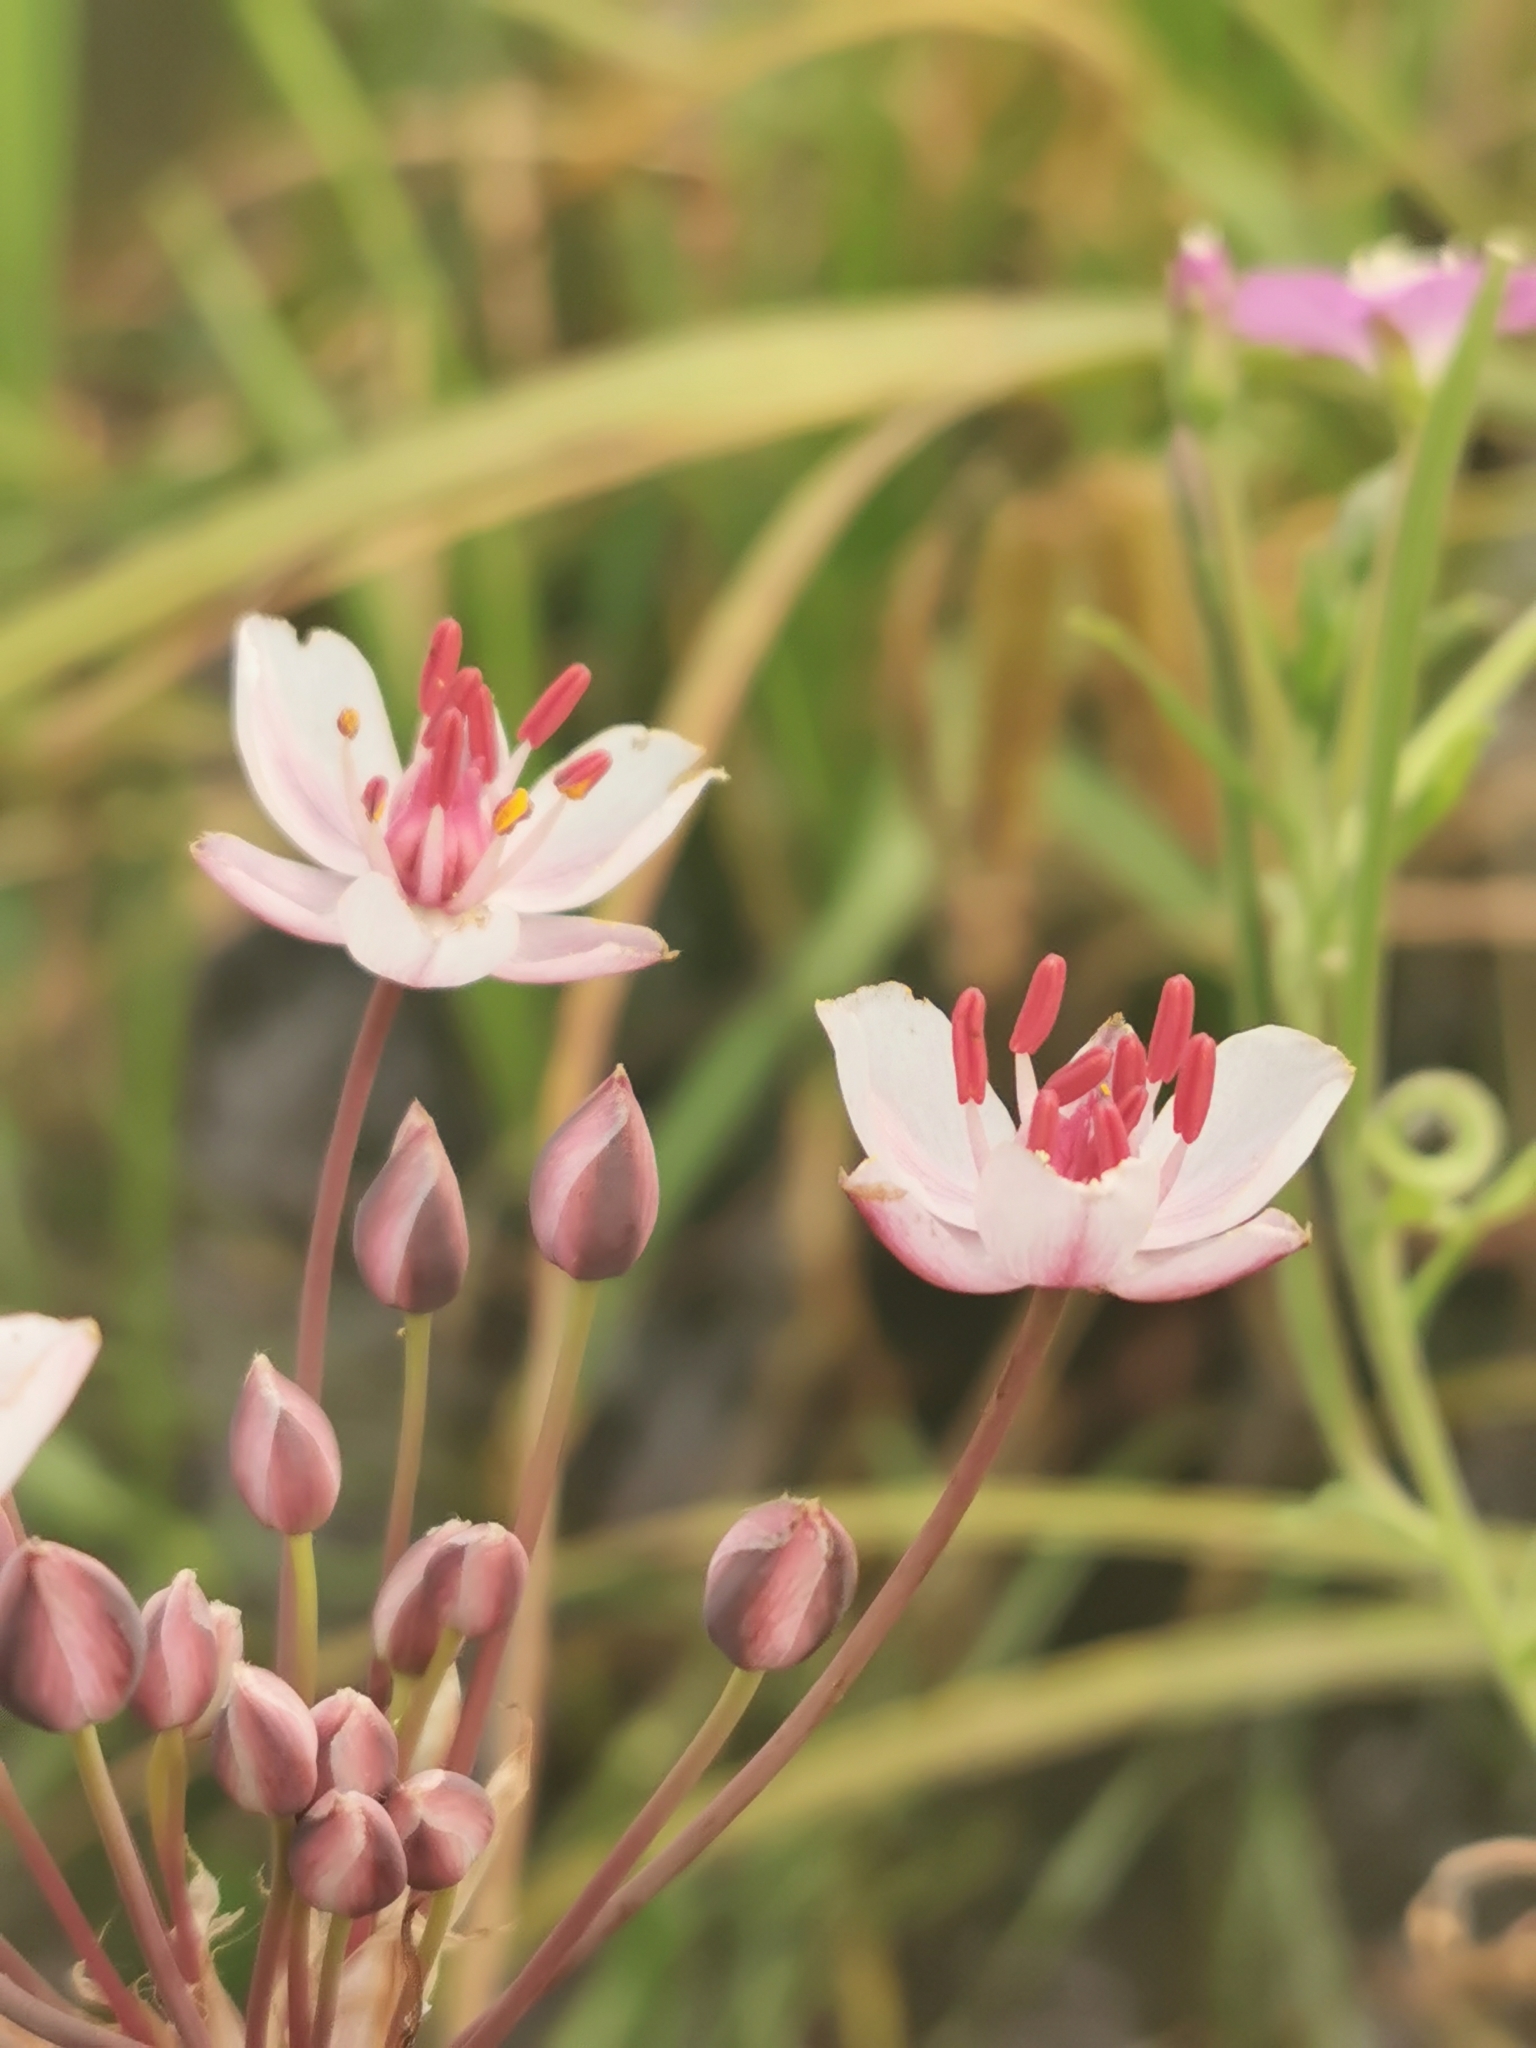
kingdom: Plantae
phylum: Tracheophyta
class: Liliopsida
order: Alismatales
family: Butomaceae
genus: Butomus
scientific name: Butomus umbellatus
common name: Flowering-rush
